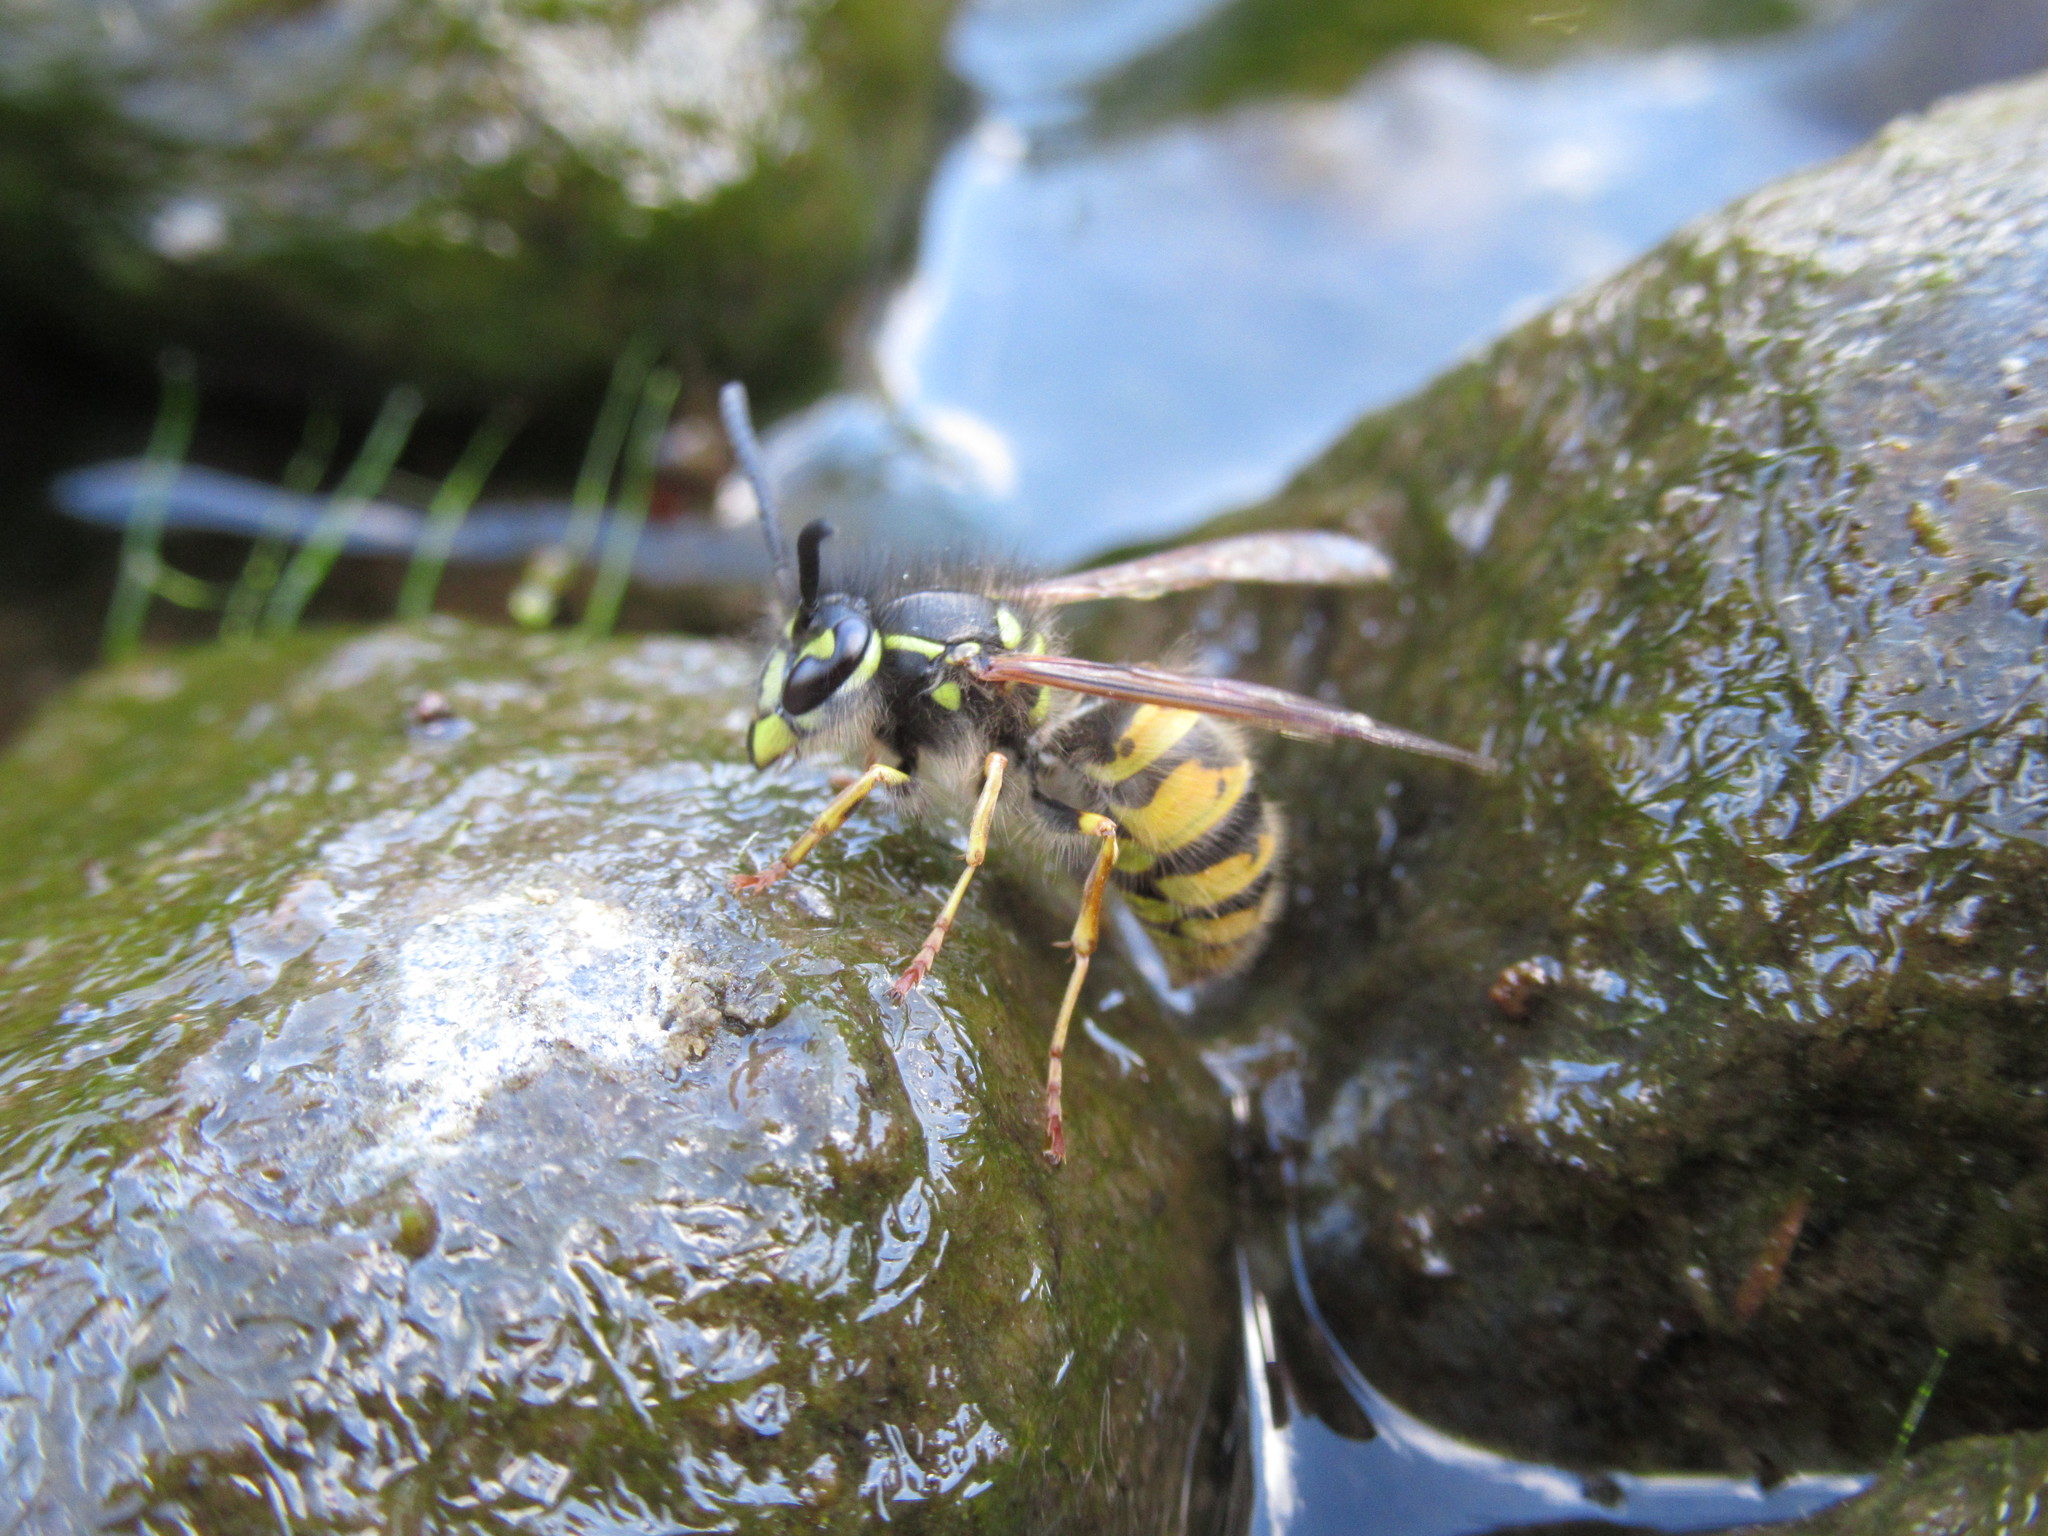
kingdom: Animalia
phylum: Arthropoda
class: Insecta
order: Hymenoptera
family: Vespidae
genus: Vespula
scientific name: Vespula vulgaris
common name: Common wasp
